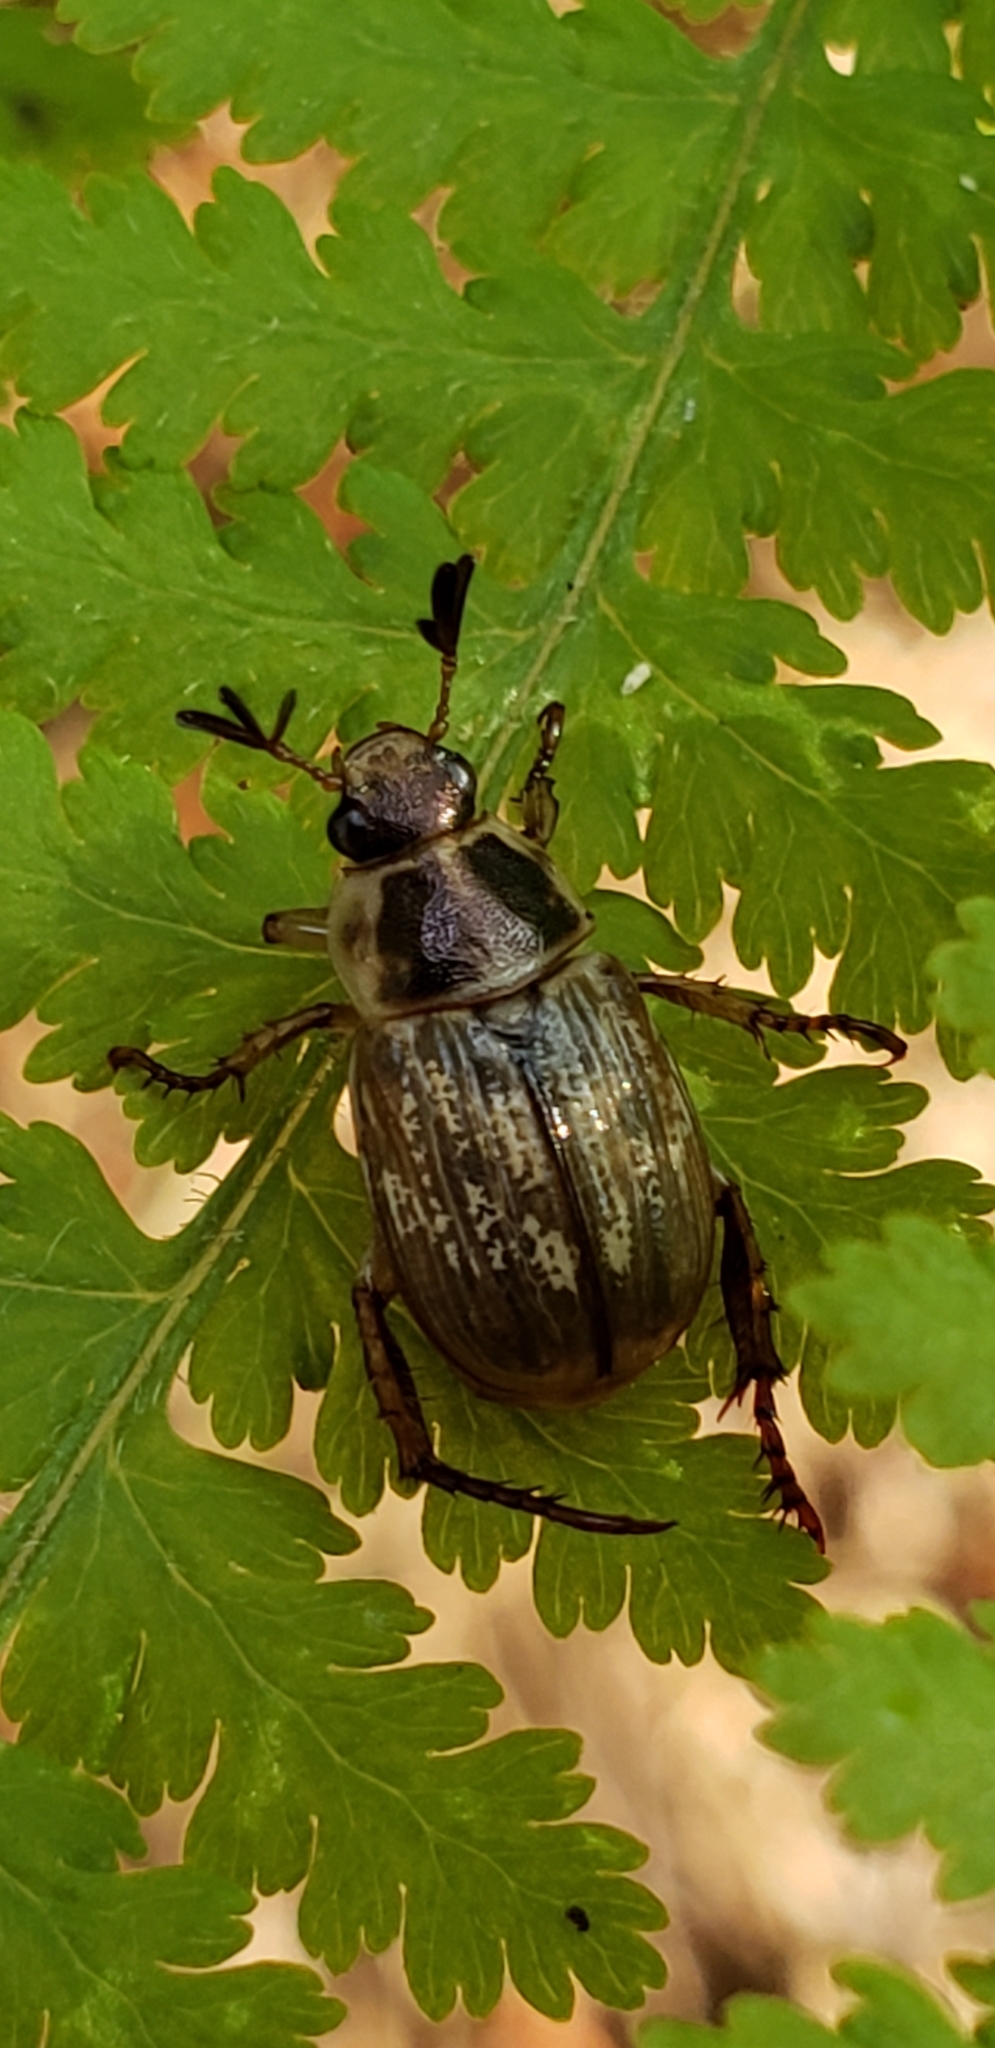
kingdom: Animalia
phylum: Arthropoda
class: Insecta
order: Coleoptera
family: Scarabaeidae
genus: Exomala
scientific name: Exomala orientalis
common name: Oriental beetle
